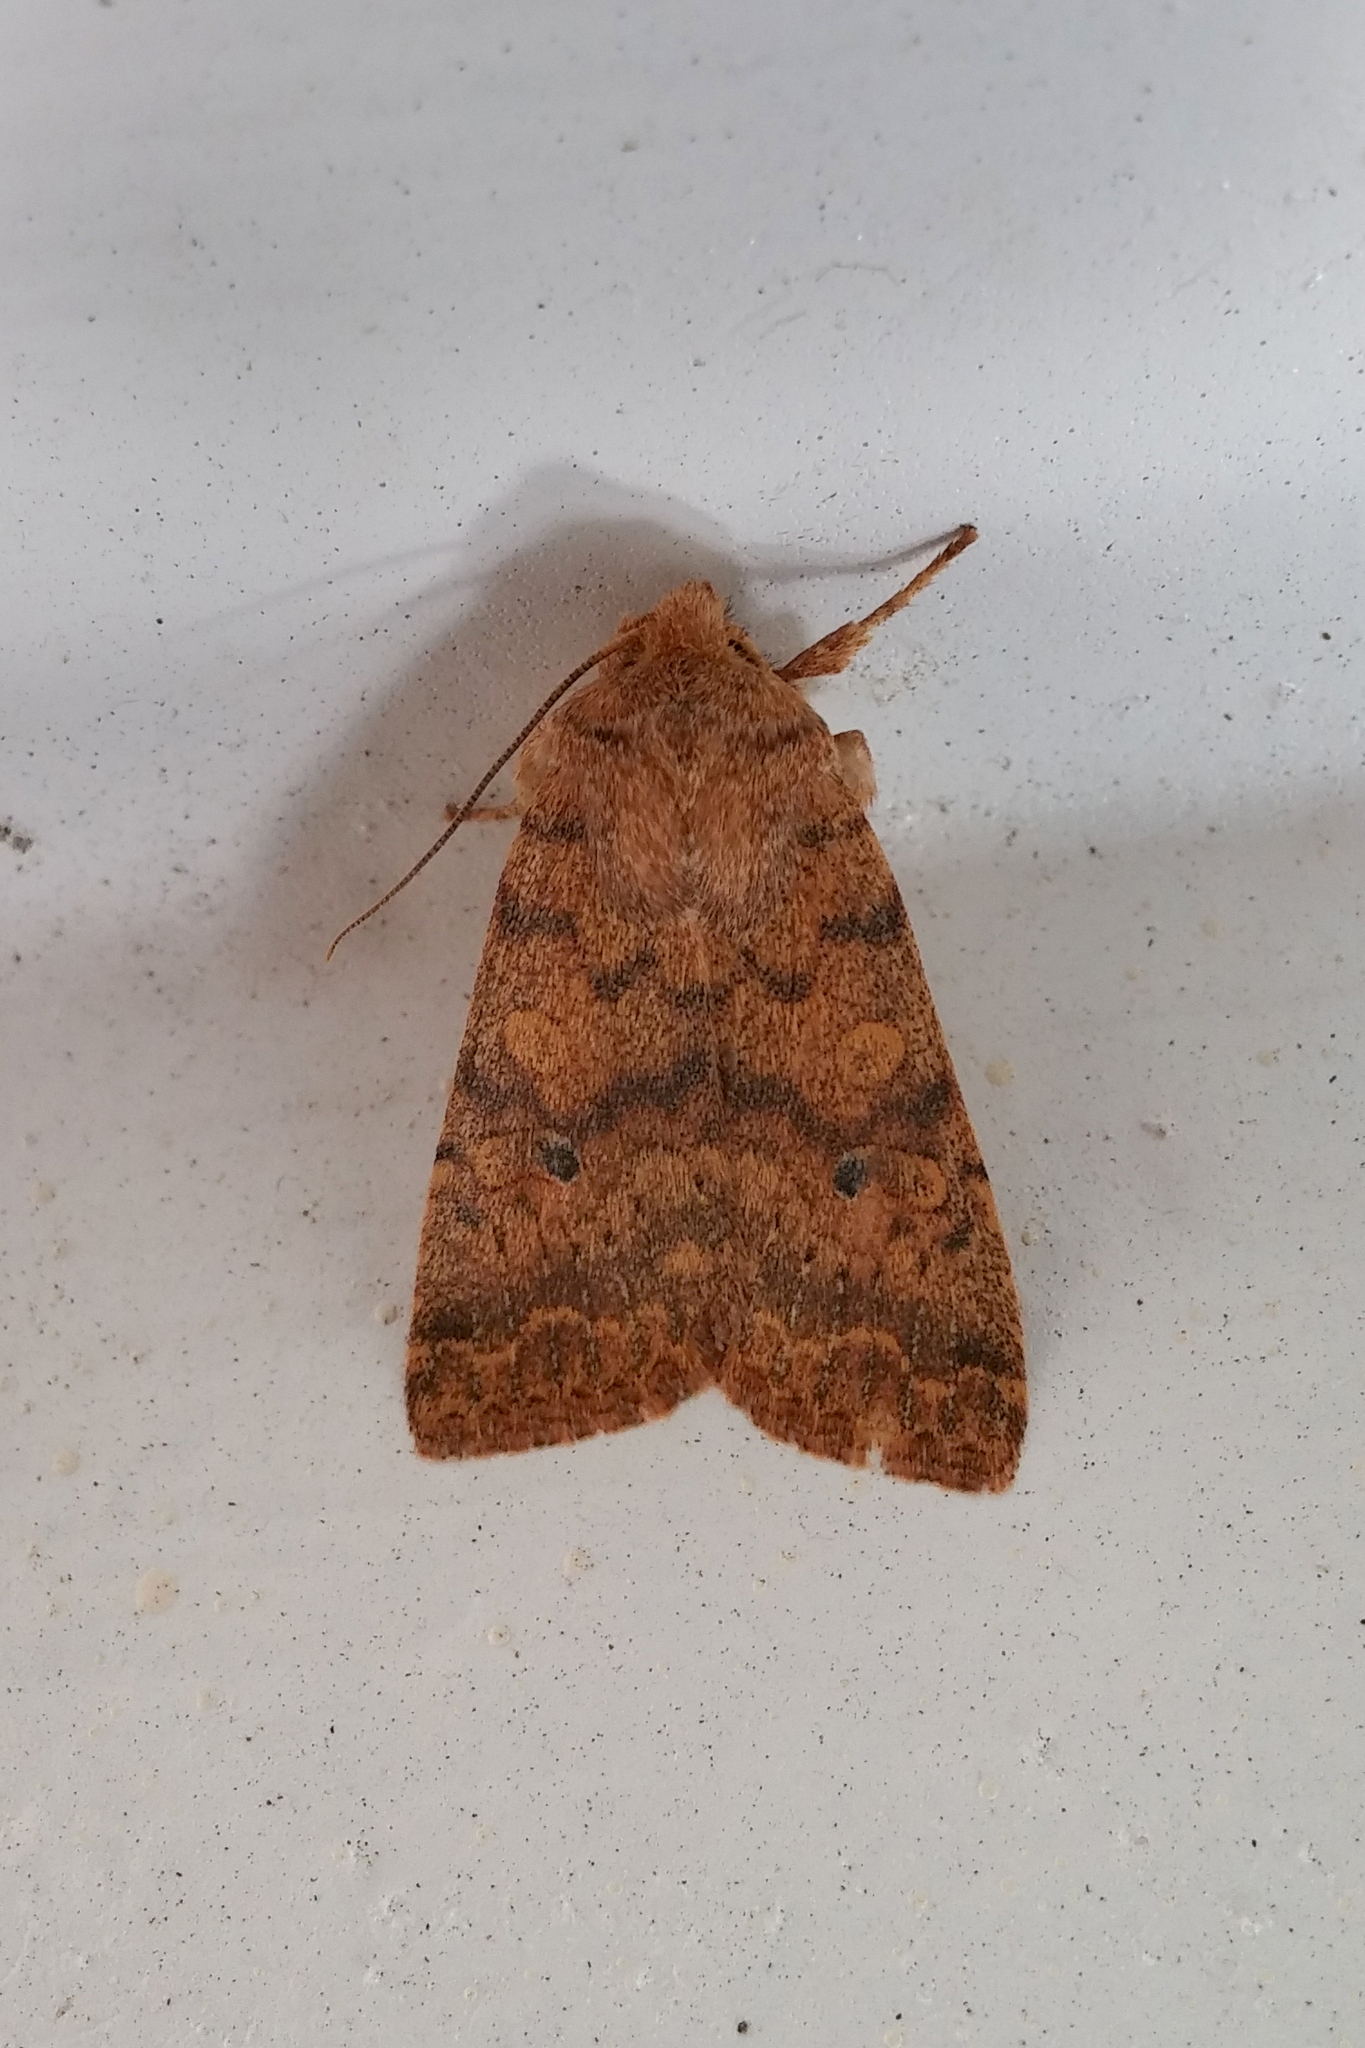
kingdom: Animalia
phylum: Arthropoda
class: Insecta
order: Lepidoptera
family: Noctuidae
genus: Agrochola
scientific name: Agrochola bicolorago
